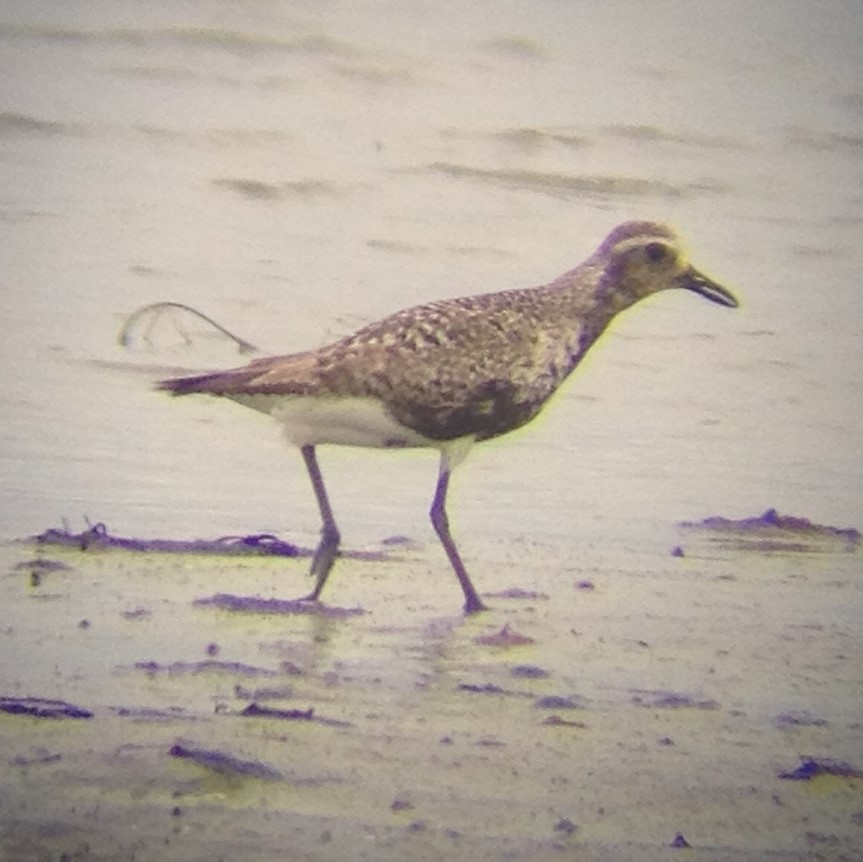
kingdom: Animalia
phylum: Chordata
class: Aves
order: Charadriiformes
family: Charadriidae
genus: Pluvialis
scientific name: Pluvialis squatarola
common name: Grey plover
